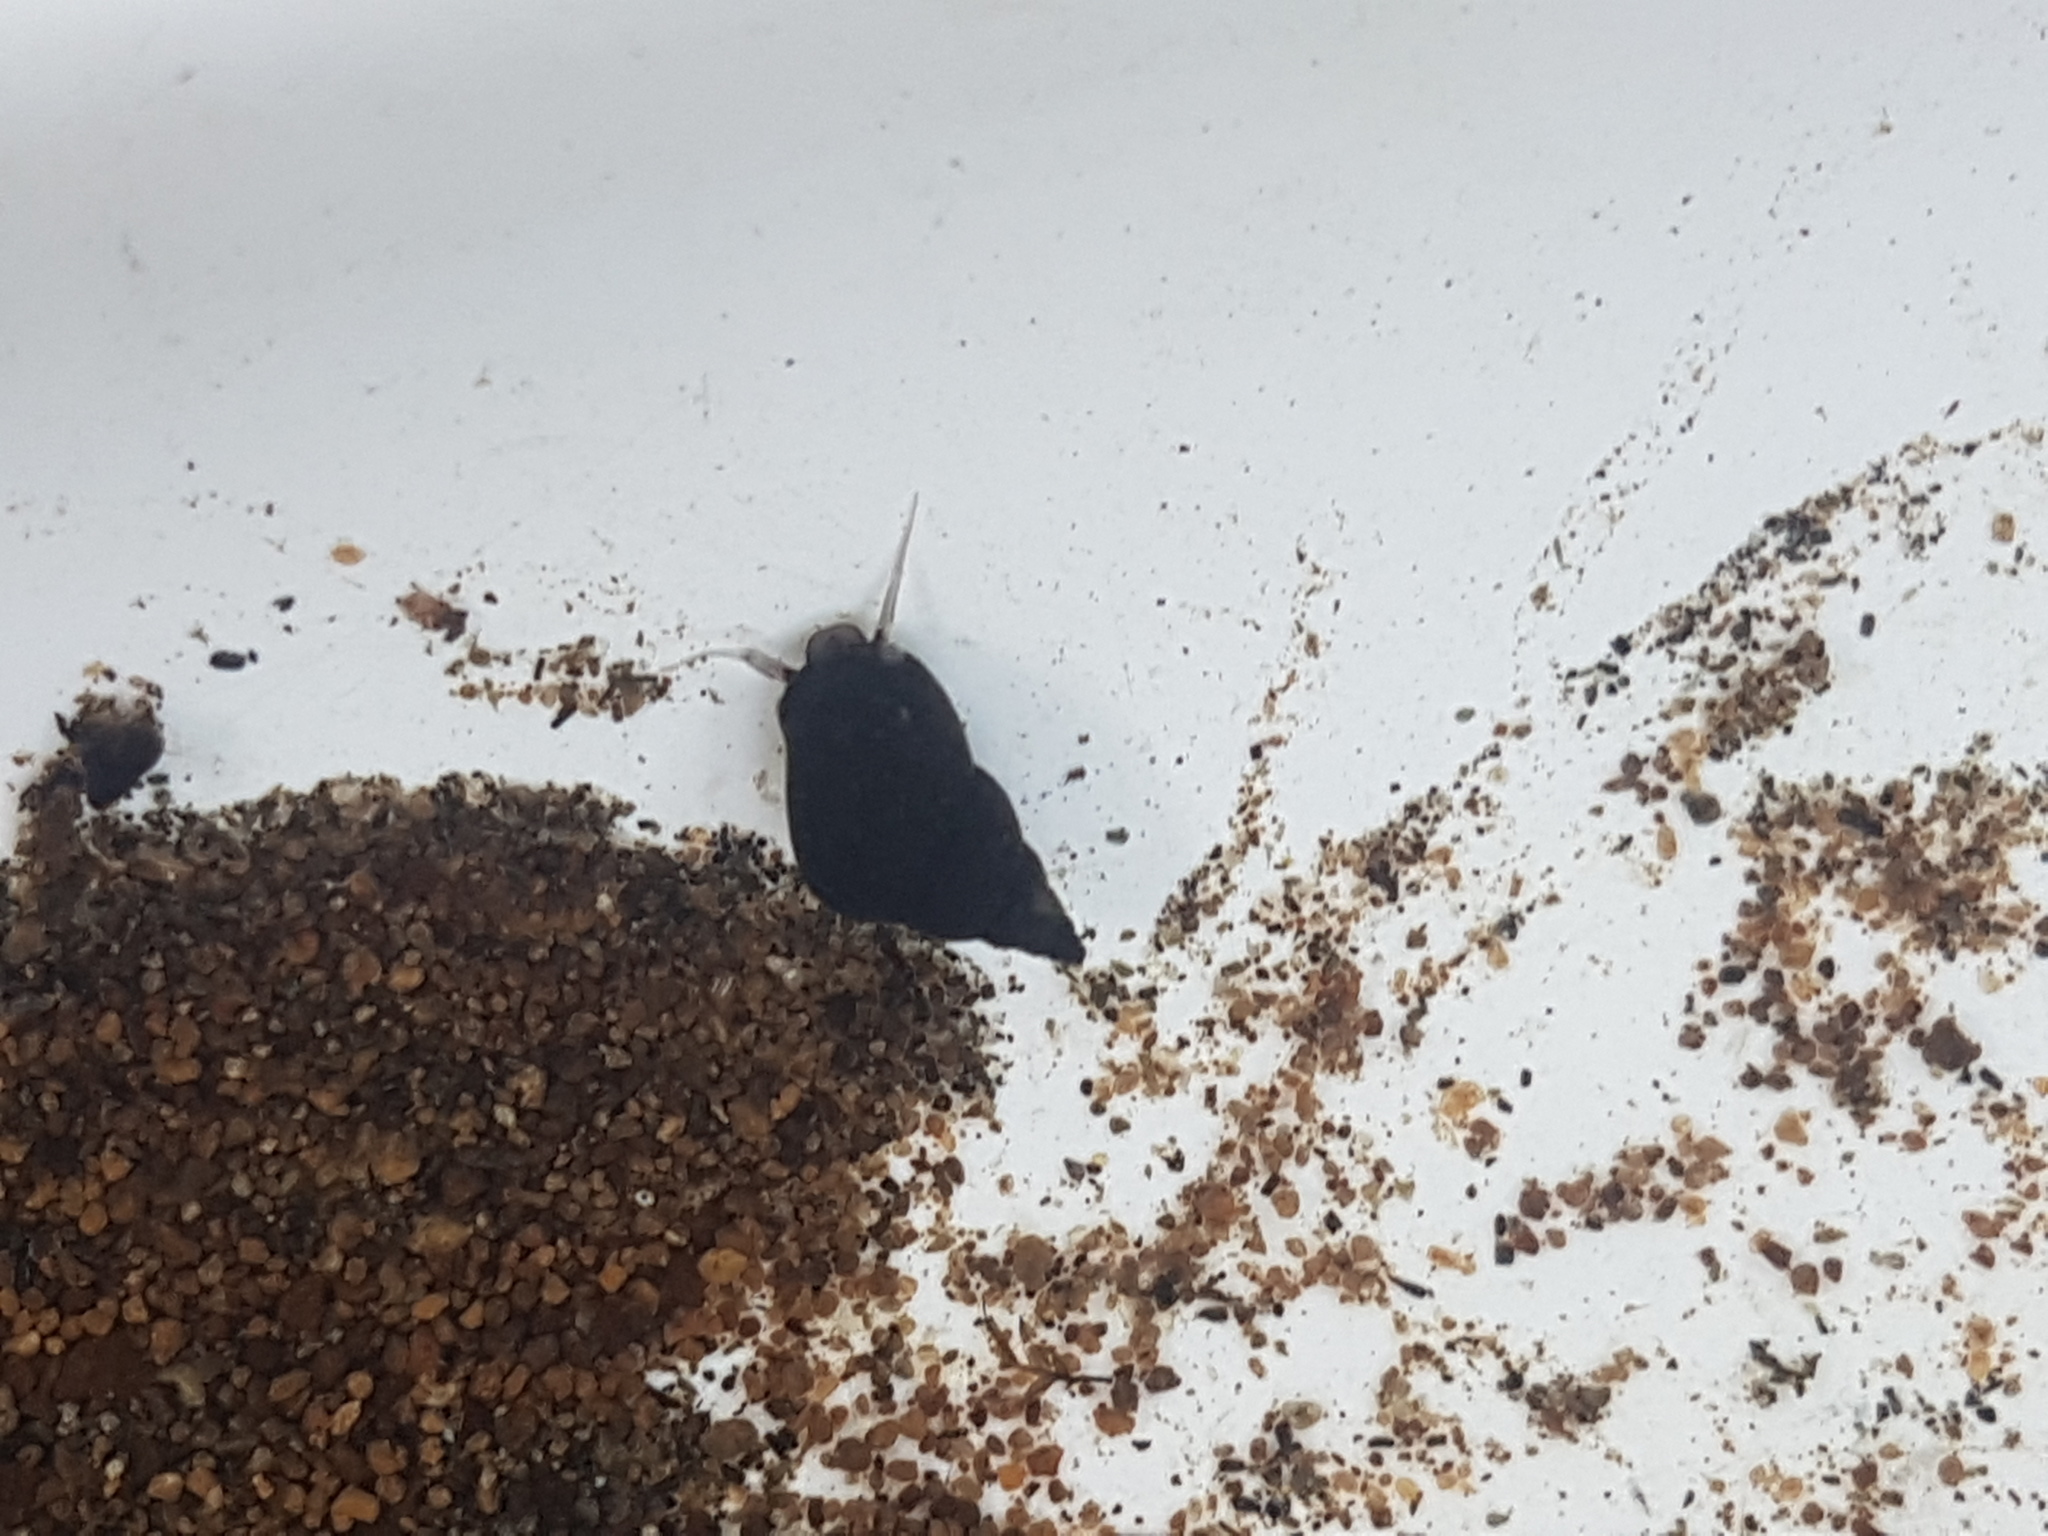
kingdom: Animalia
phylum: Mollusca
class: Gastropoda
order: Littorinimorpha
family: Tateidae
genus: Potamopyrgus
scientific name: Potamopyrgus antipodarum
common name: Jenkins' spire snail
